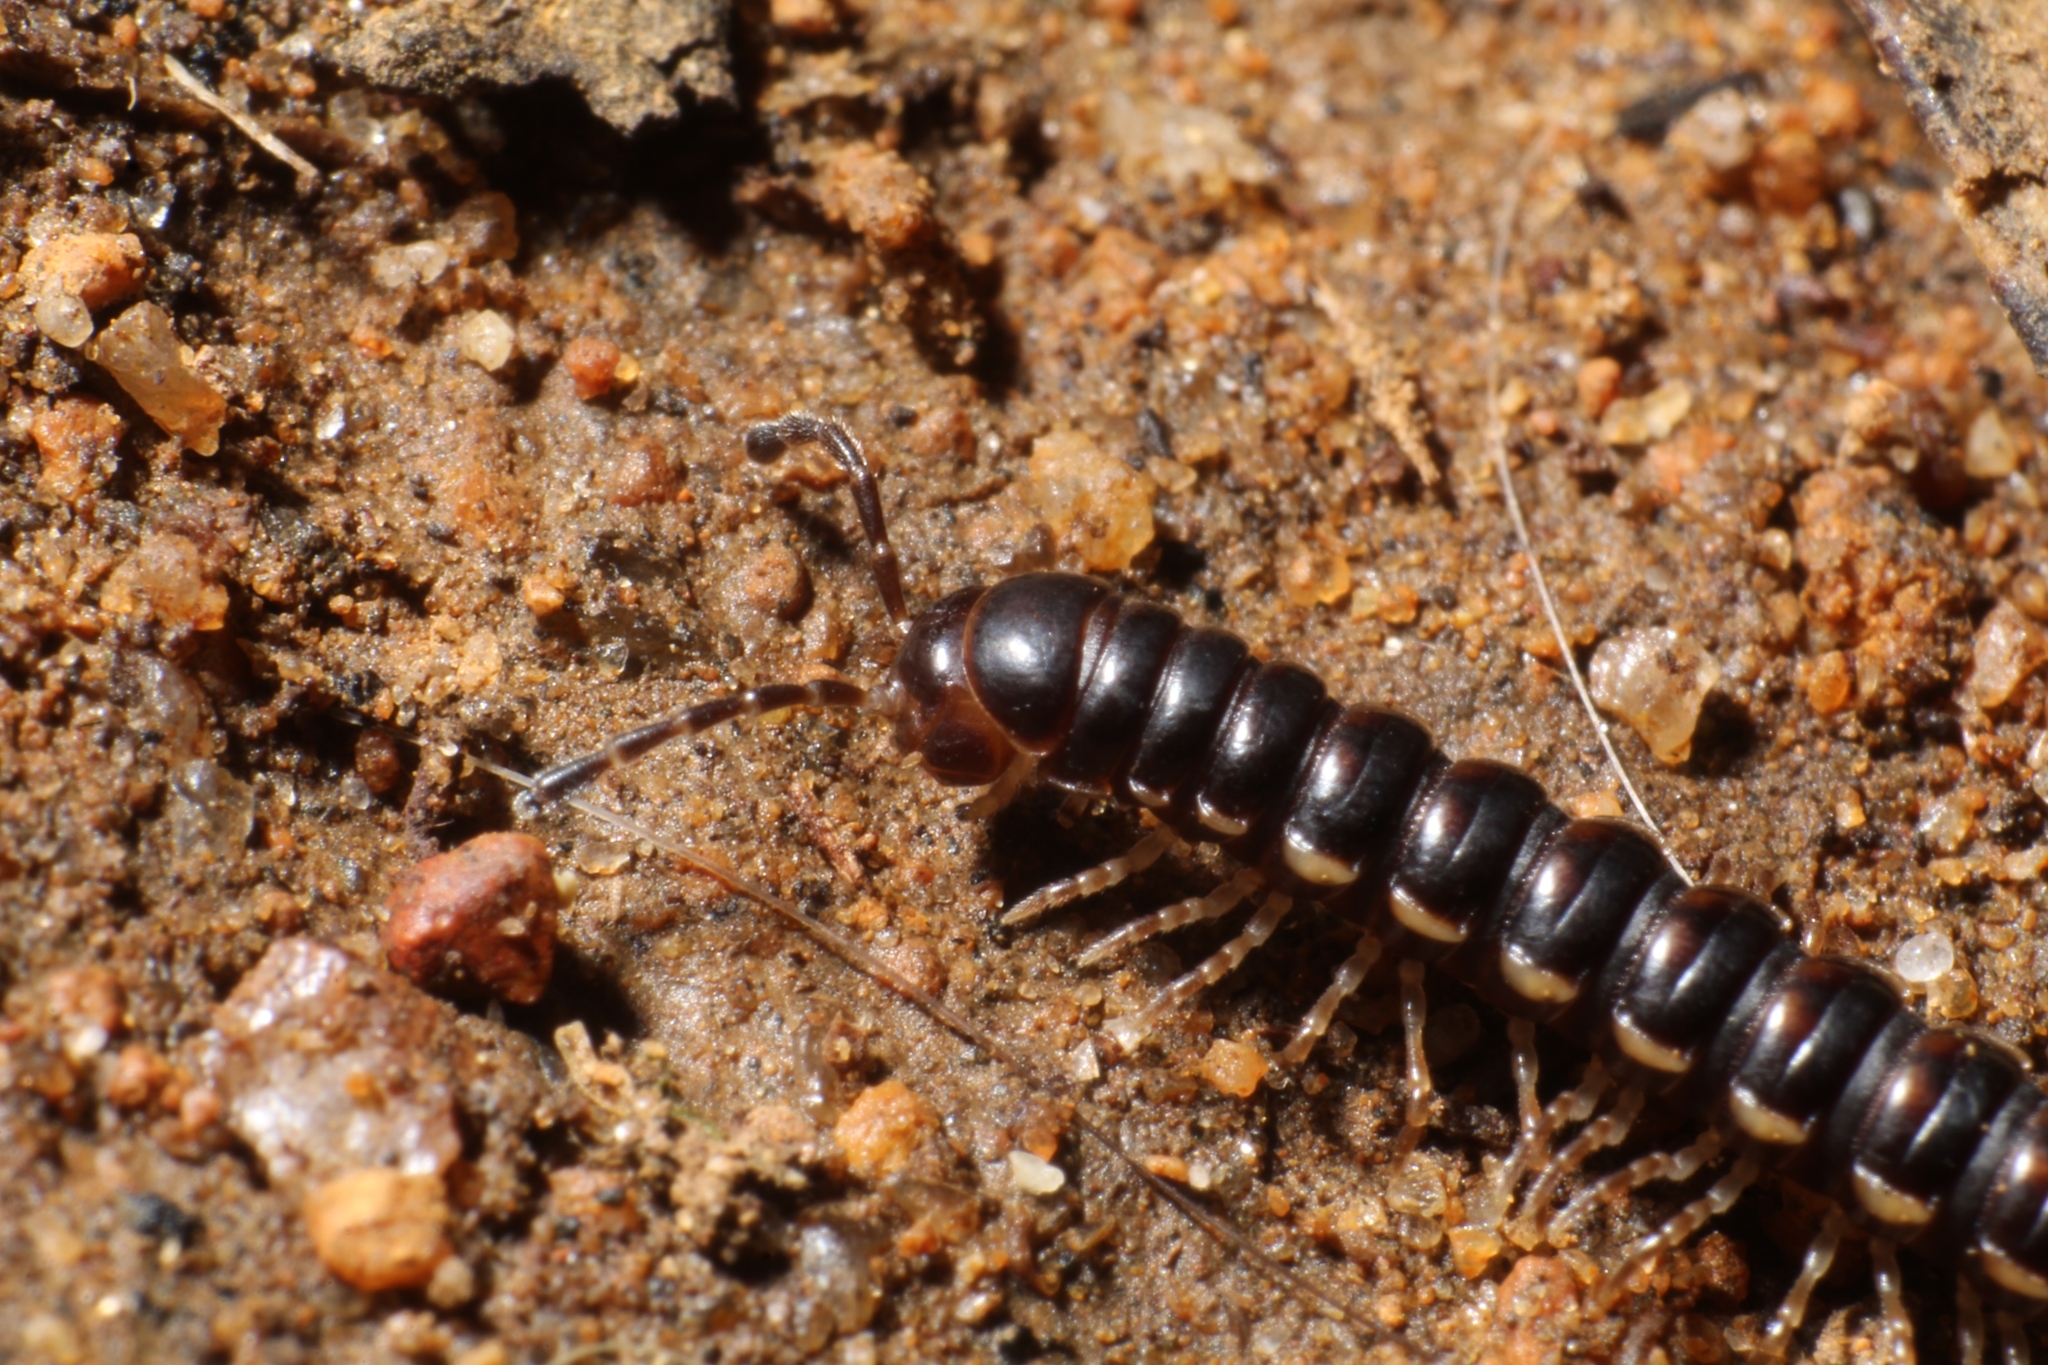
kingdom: Animalia
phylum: Arthropoda
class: Diplopoda
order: Polydesmida
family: Paradoxosomatidae
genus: Akamptogonus
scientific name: Akamptogonus novarae
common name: Millipede
